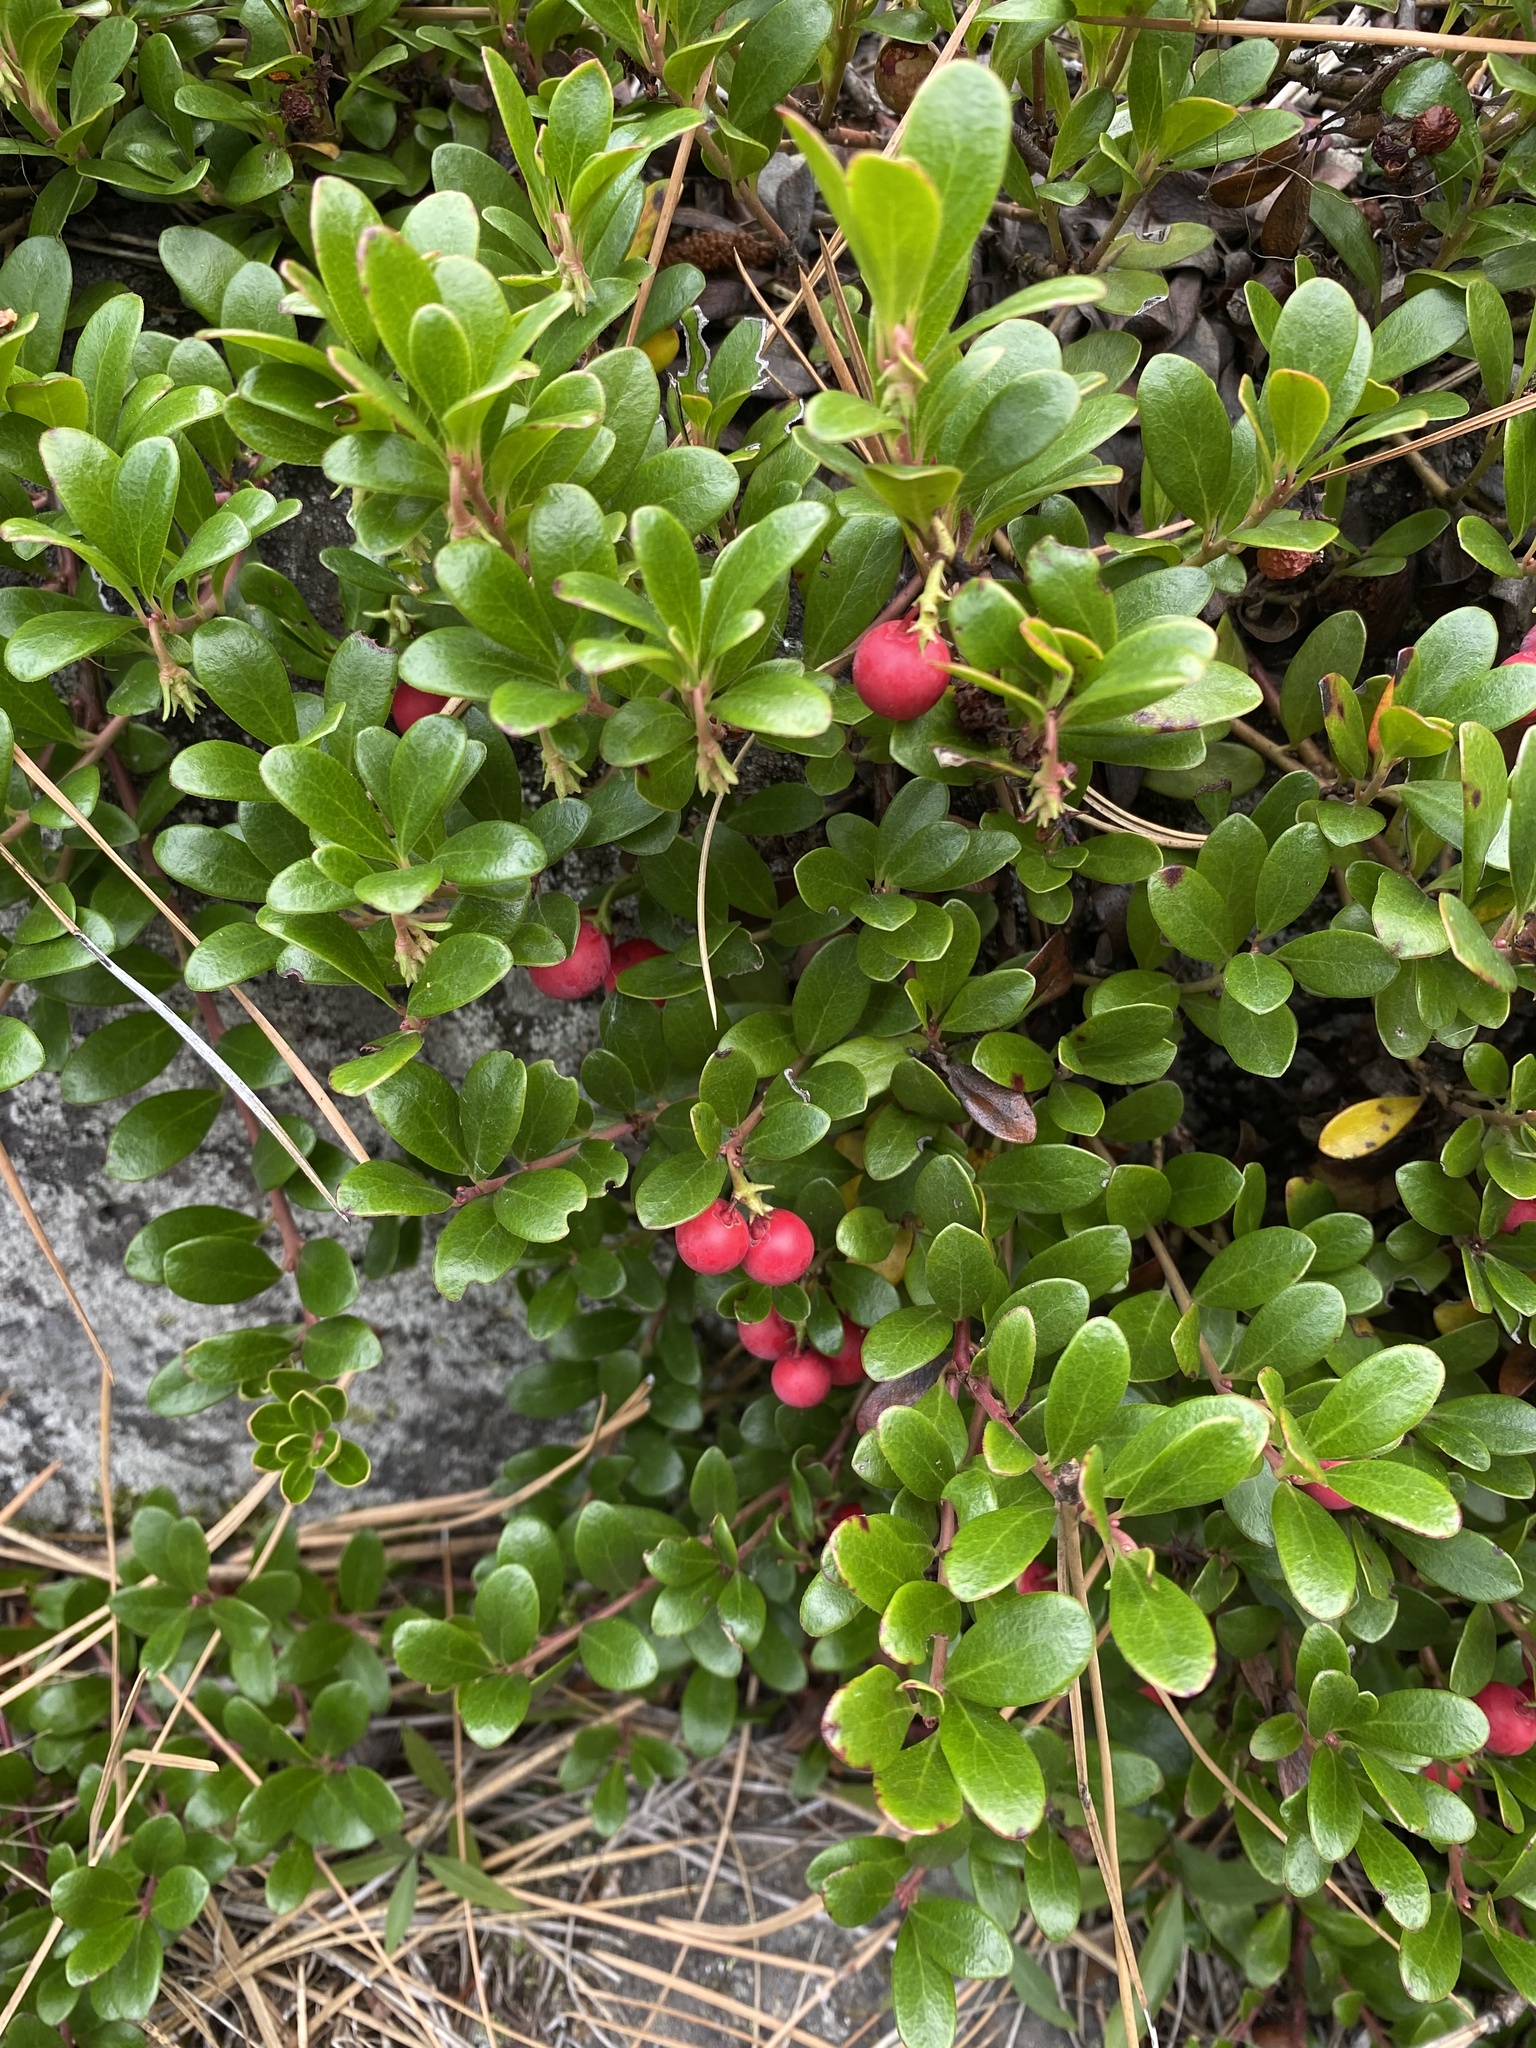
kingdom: Plantae
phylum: Tracheophyta
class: Magnoliopsida
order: Ericales
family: Ericaceae
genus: Arctostaphylos
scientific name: Arctostaphylos uva-ursi
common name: Bearberry
